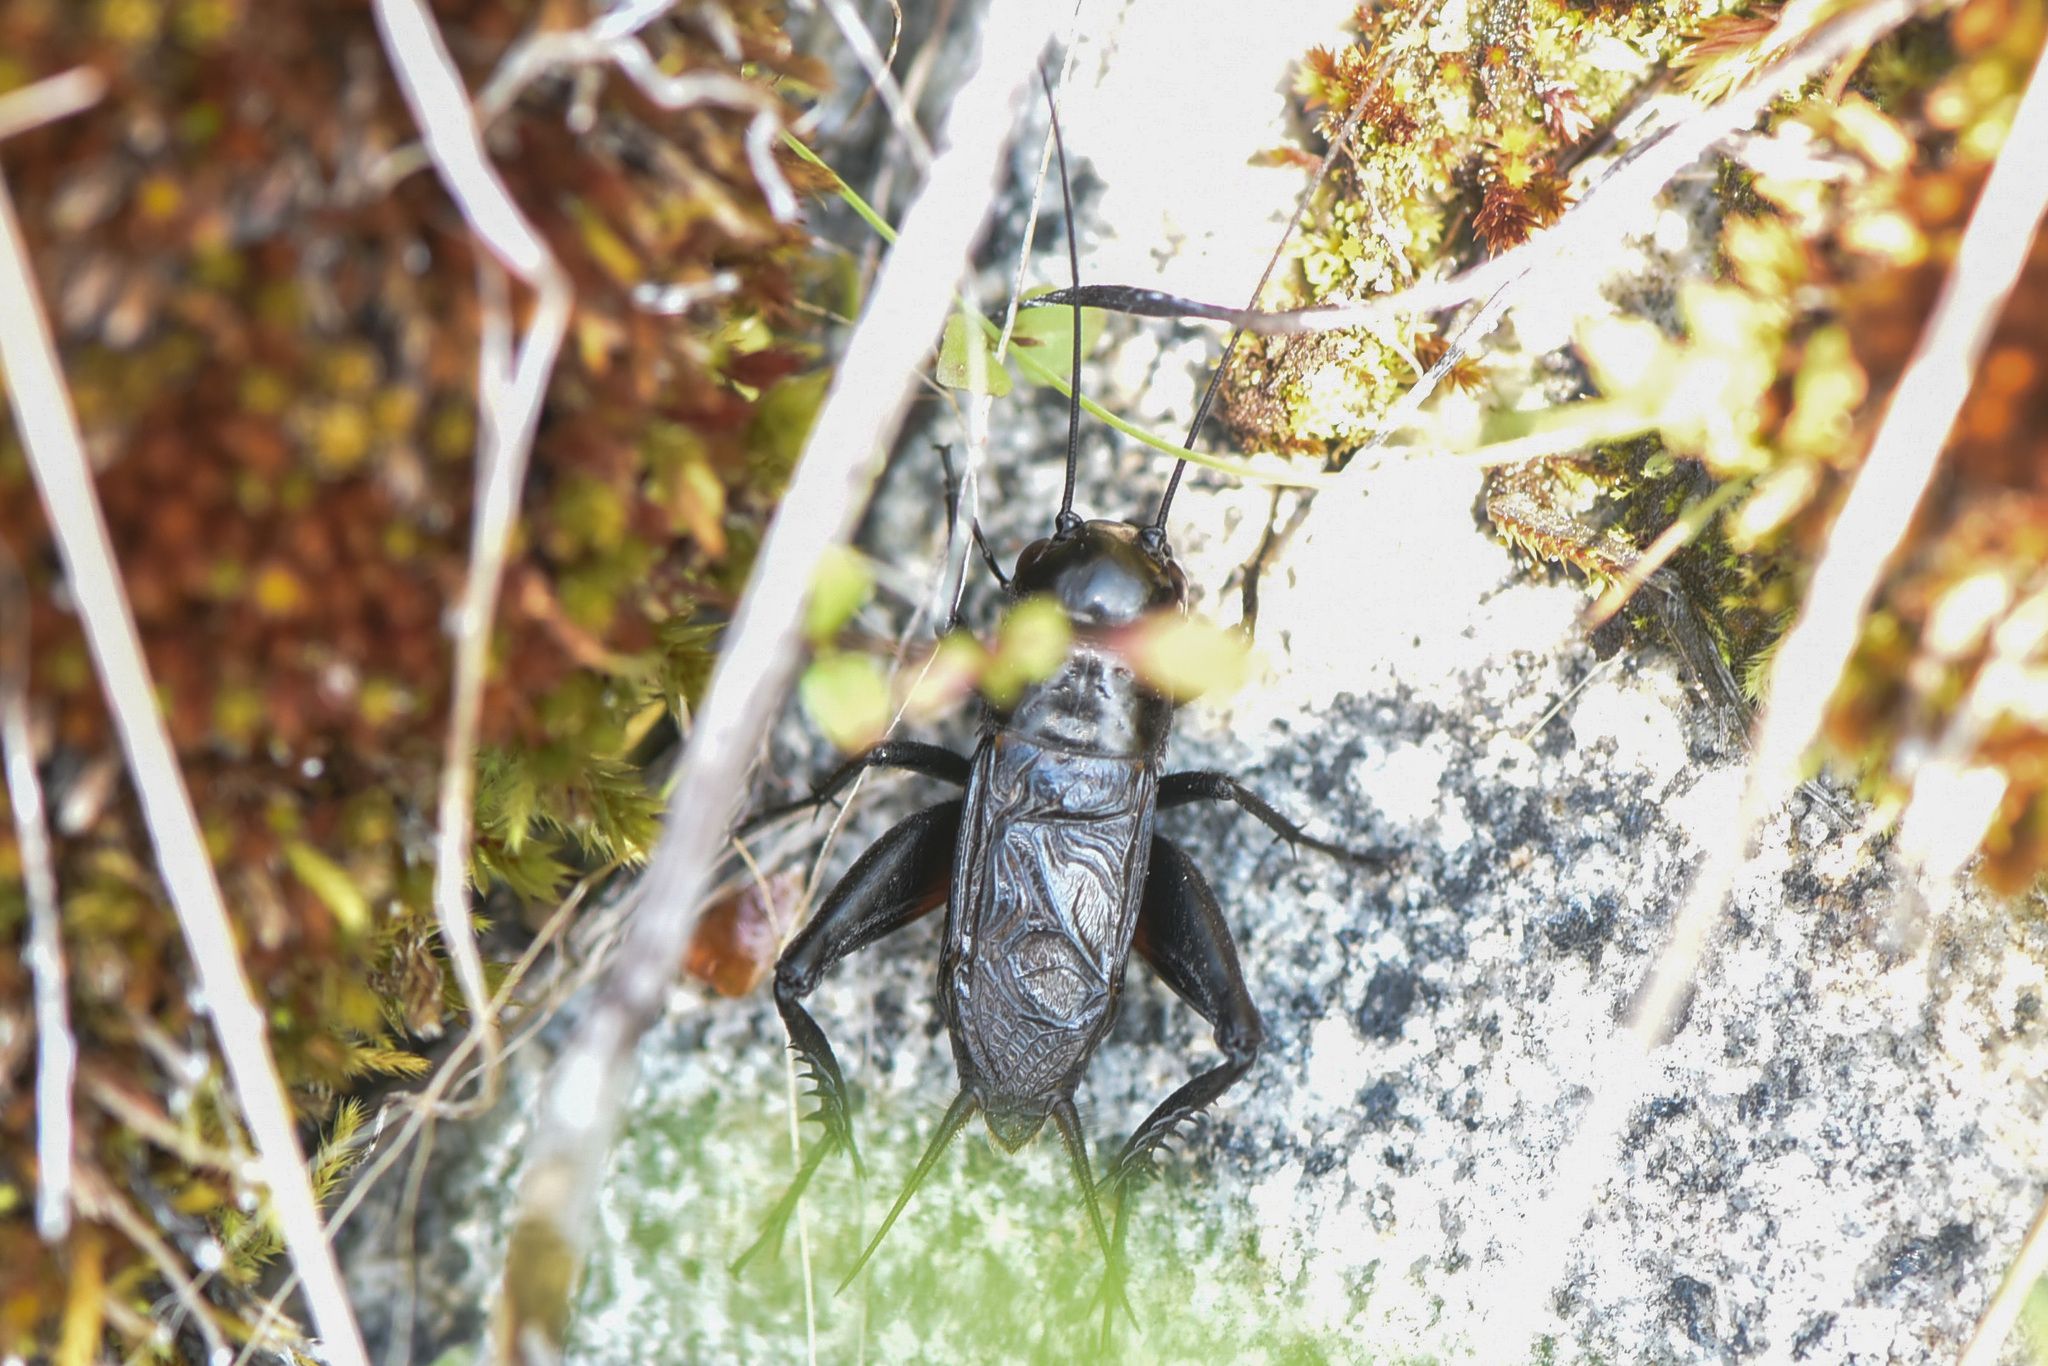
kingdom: Animalia
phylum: Arthropoda
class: Insecta
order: Orthoptera
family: Gryllidae
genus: Gryllus
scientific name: Gryllus veletis
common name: Spring field cricket
